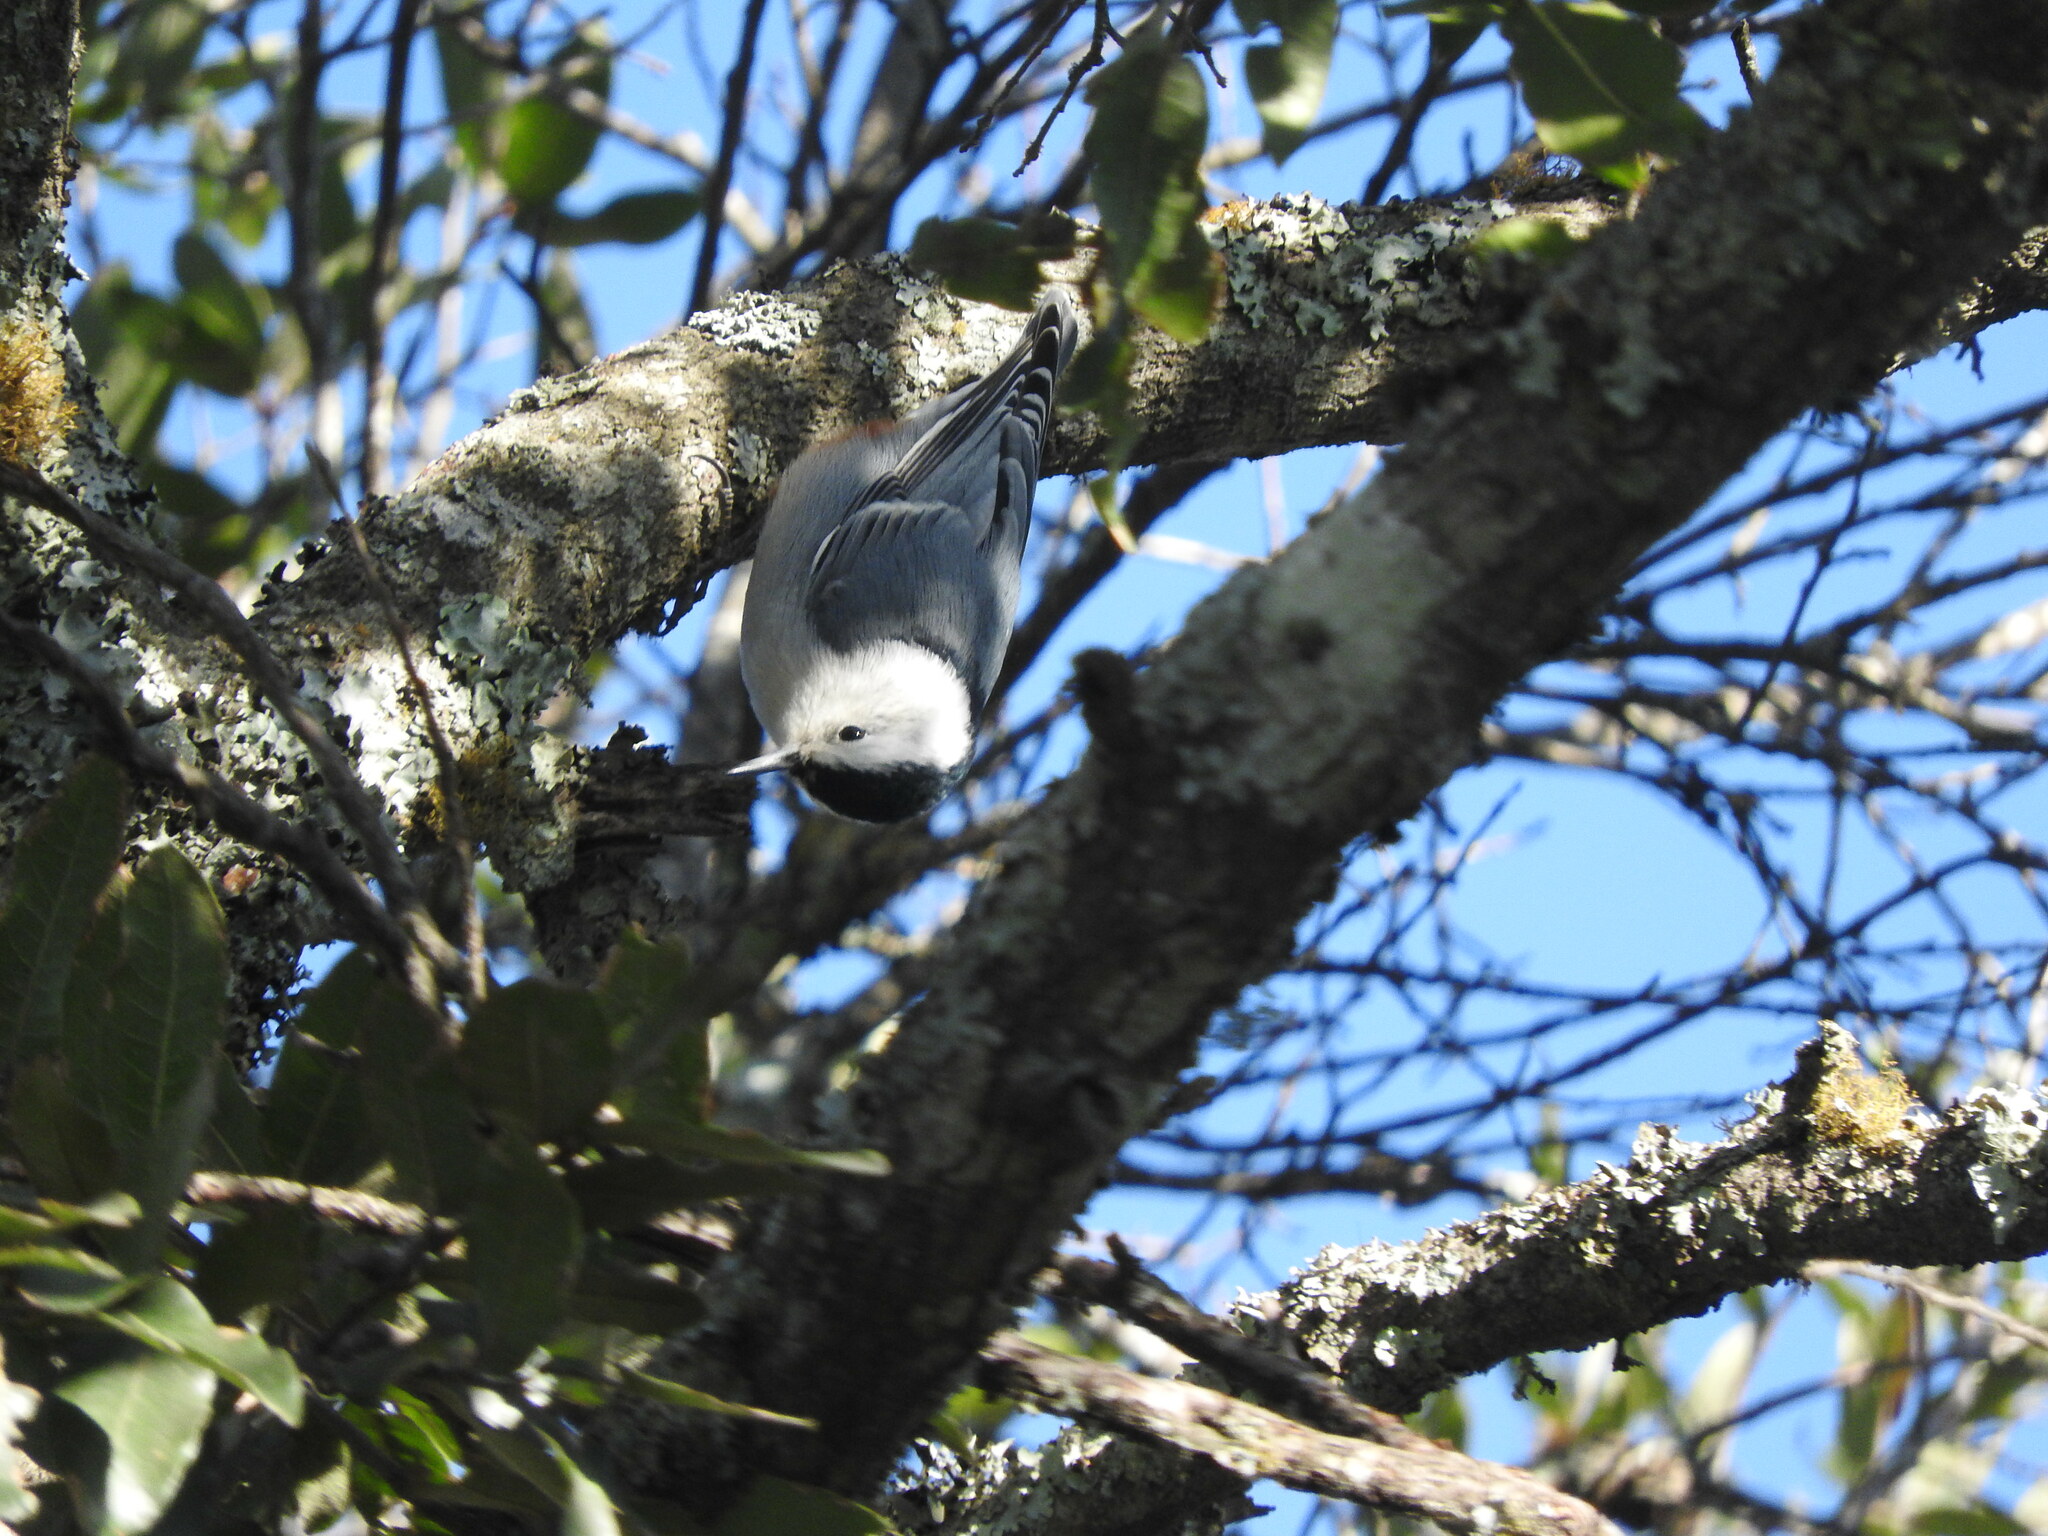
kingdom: Animalia
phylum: Chordata
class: Aves
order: Passeriformes
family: Sittidae
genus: Sitta
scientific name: Sitta carolinensis
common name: White-breasted nuthatch
